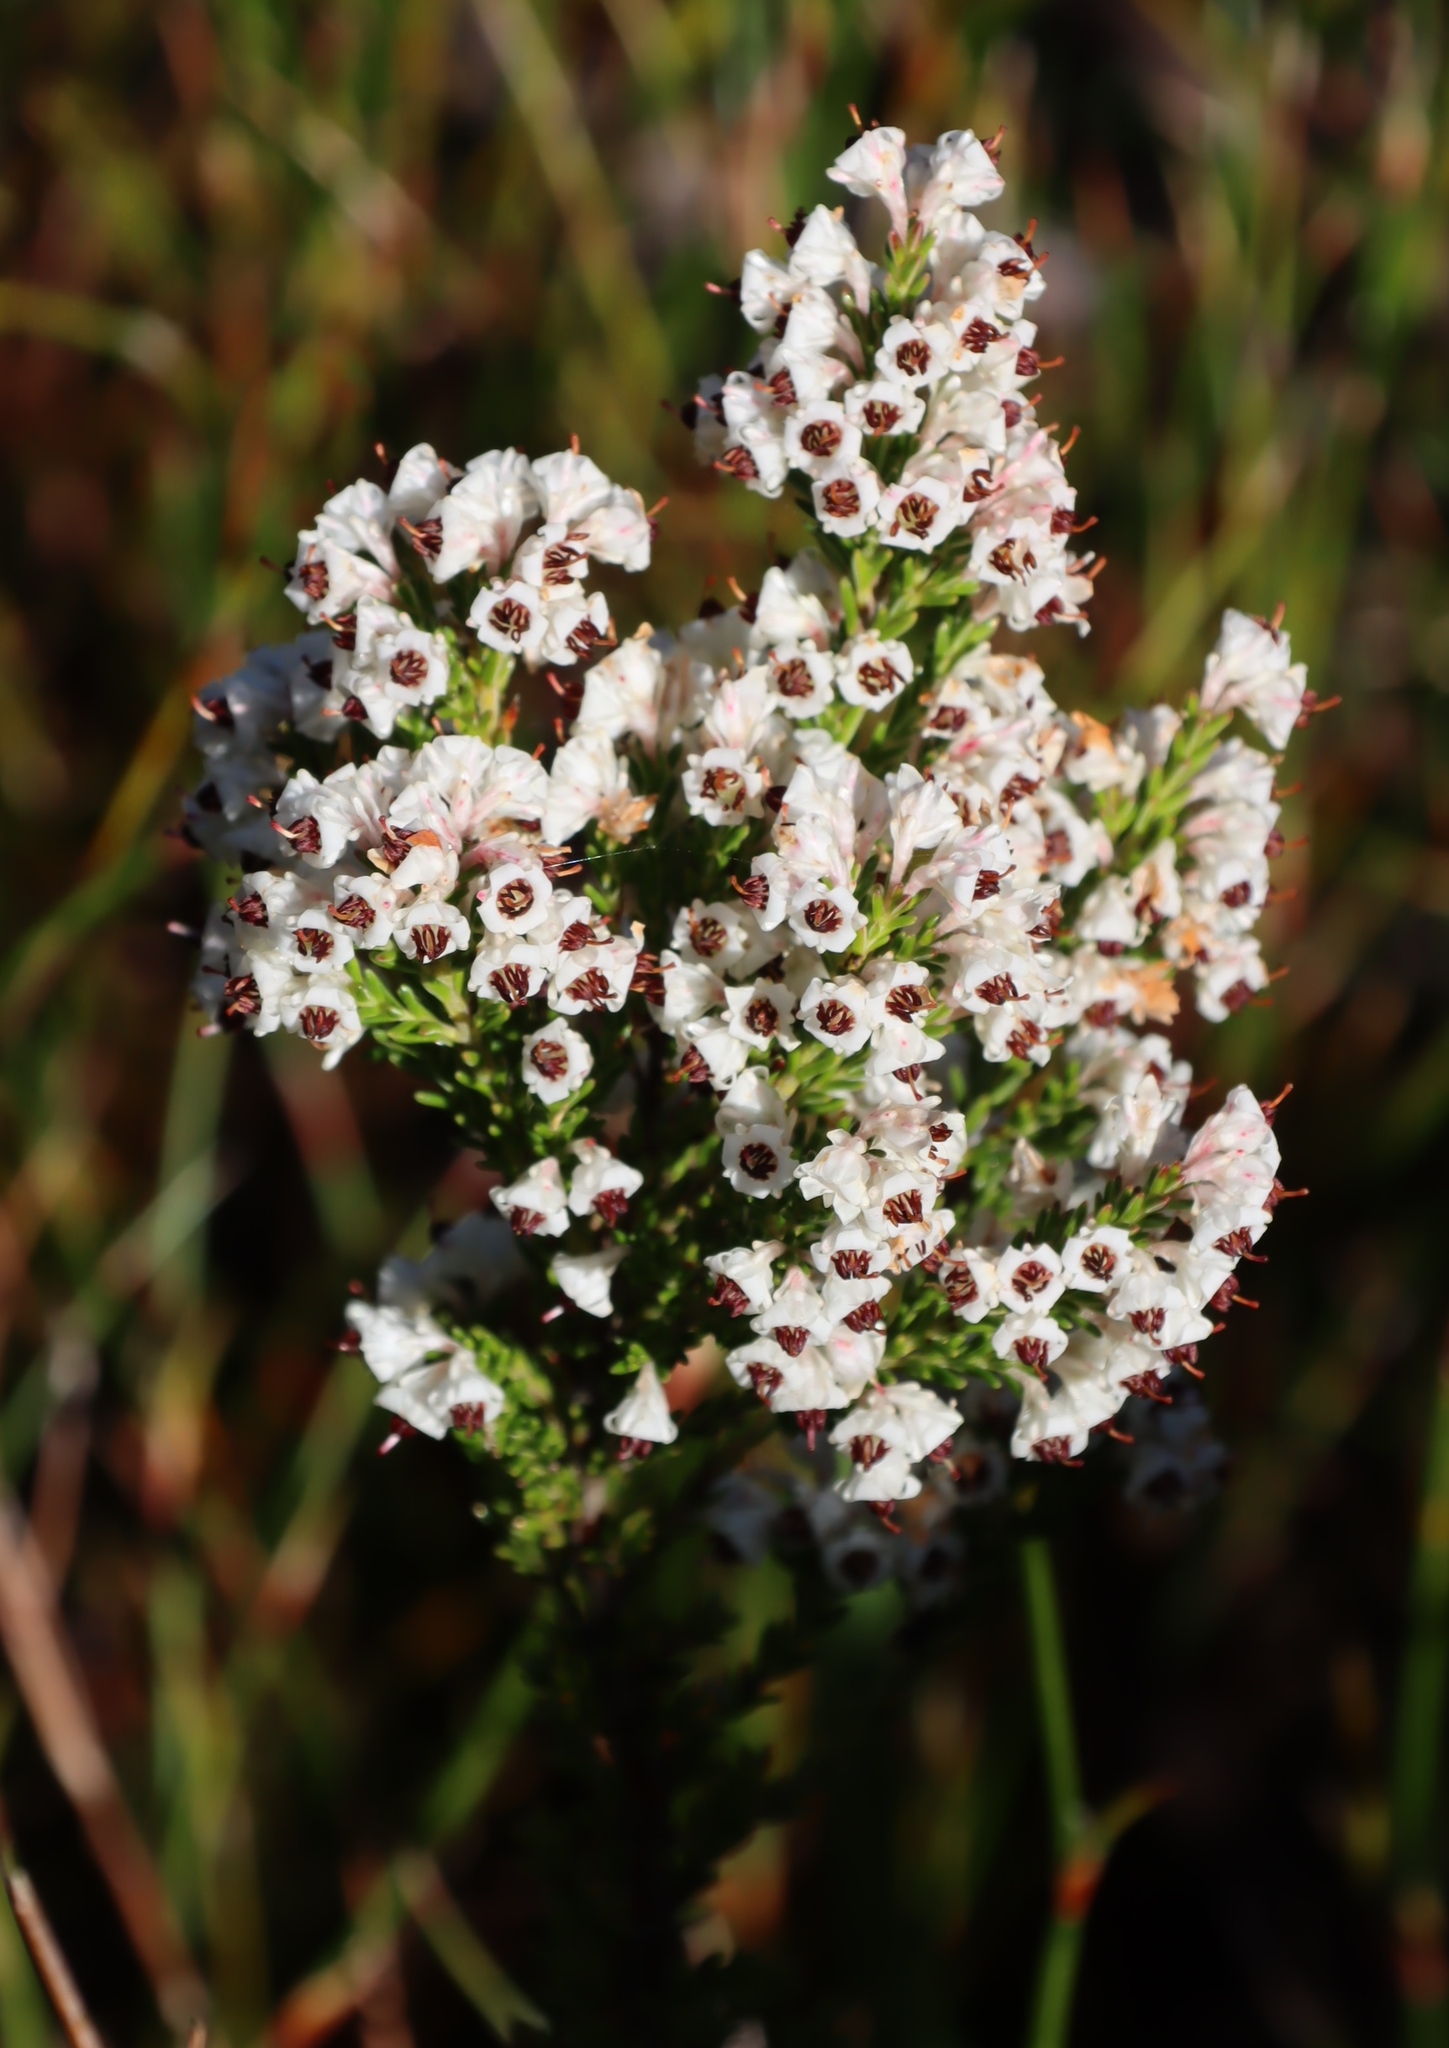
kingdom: Plantae
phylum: Tracheophyta
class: Magnoliopsida
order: Ericales
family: Ericaceae
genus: Erica
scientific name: Erica calycina
